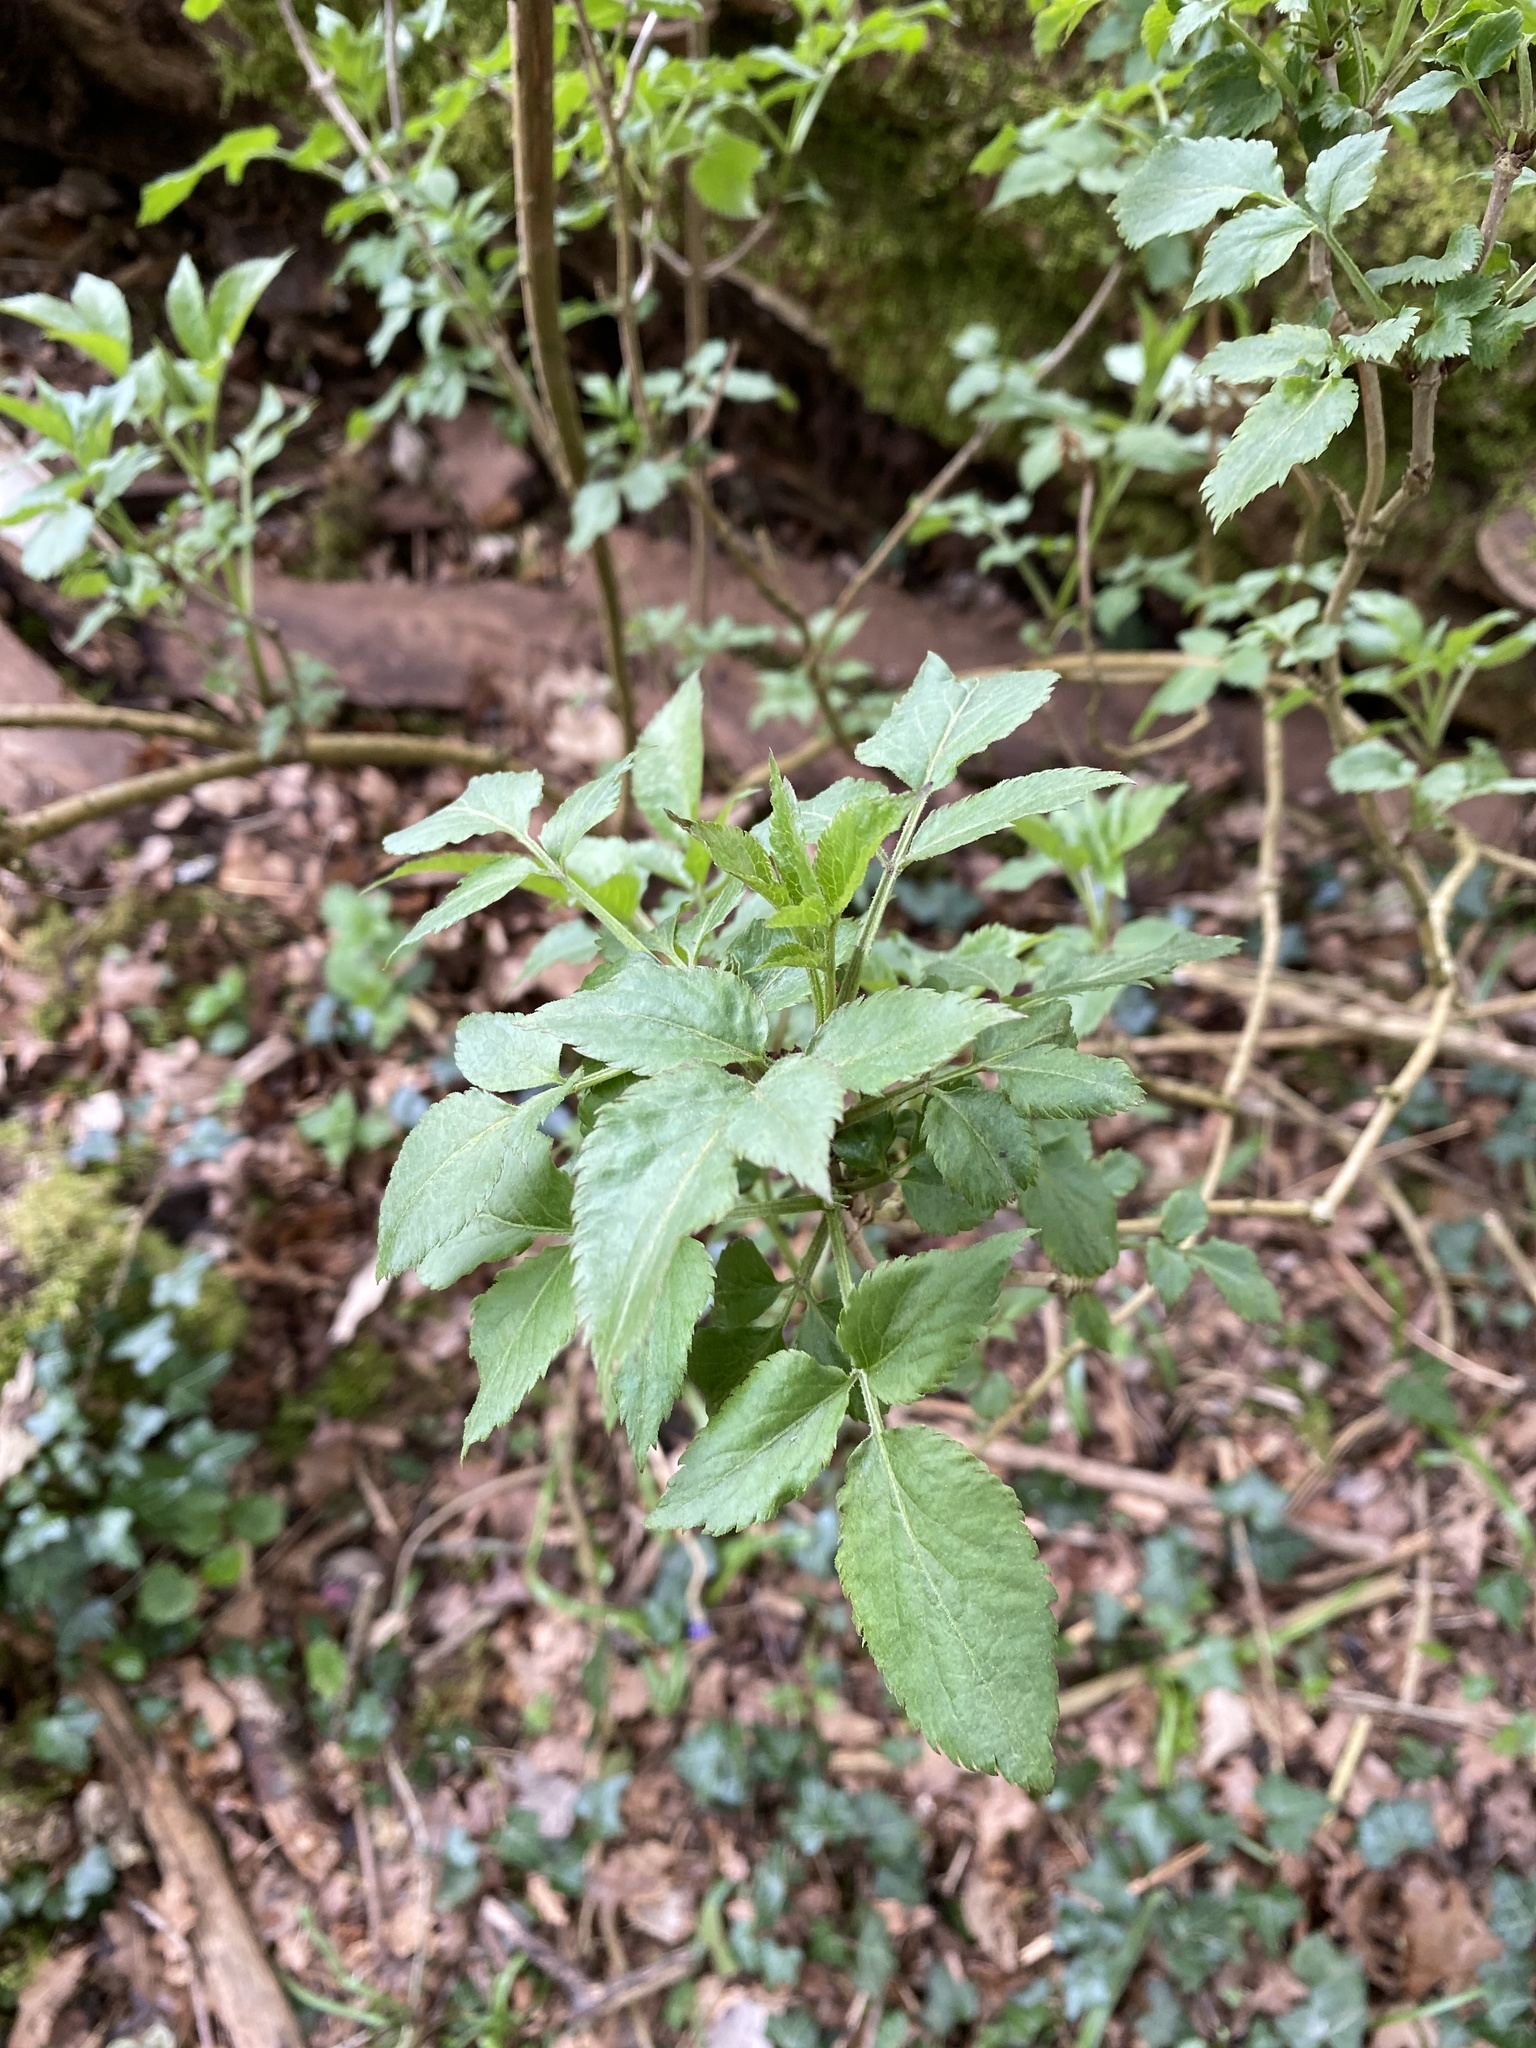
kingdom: Plantae
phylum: Tracheophyta
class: Magnoliopsida
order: Dipsacales
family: Viburnaceae
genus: Sambucus
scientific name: Sambucus nigra
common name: Elder
